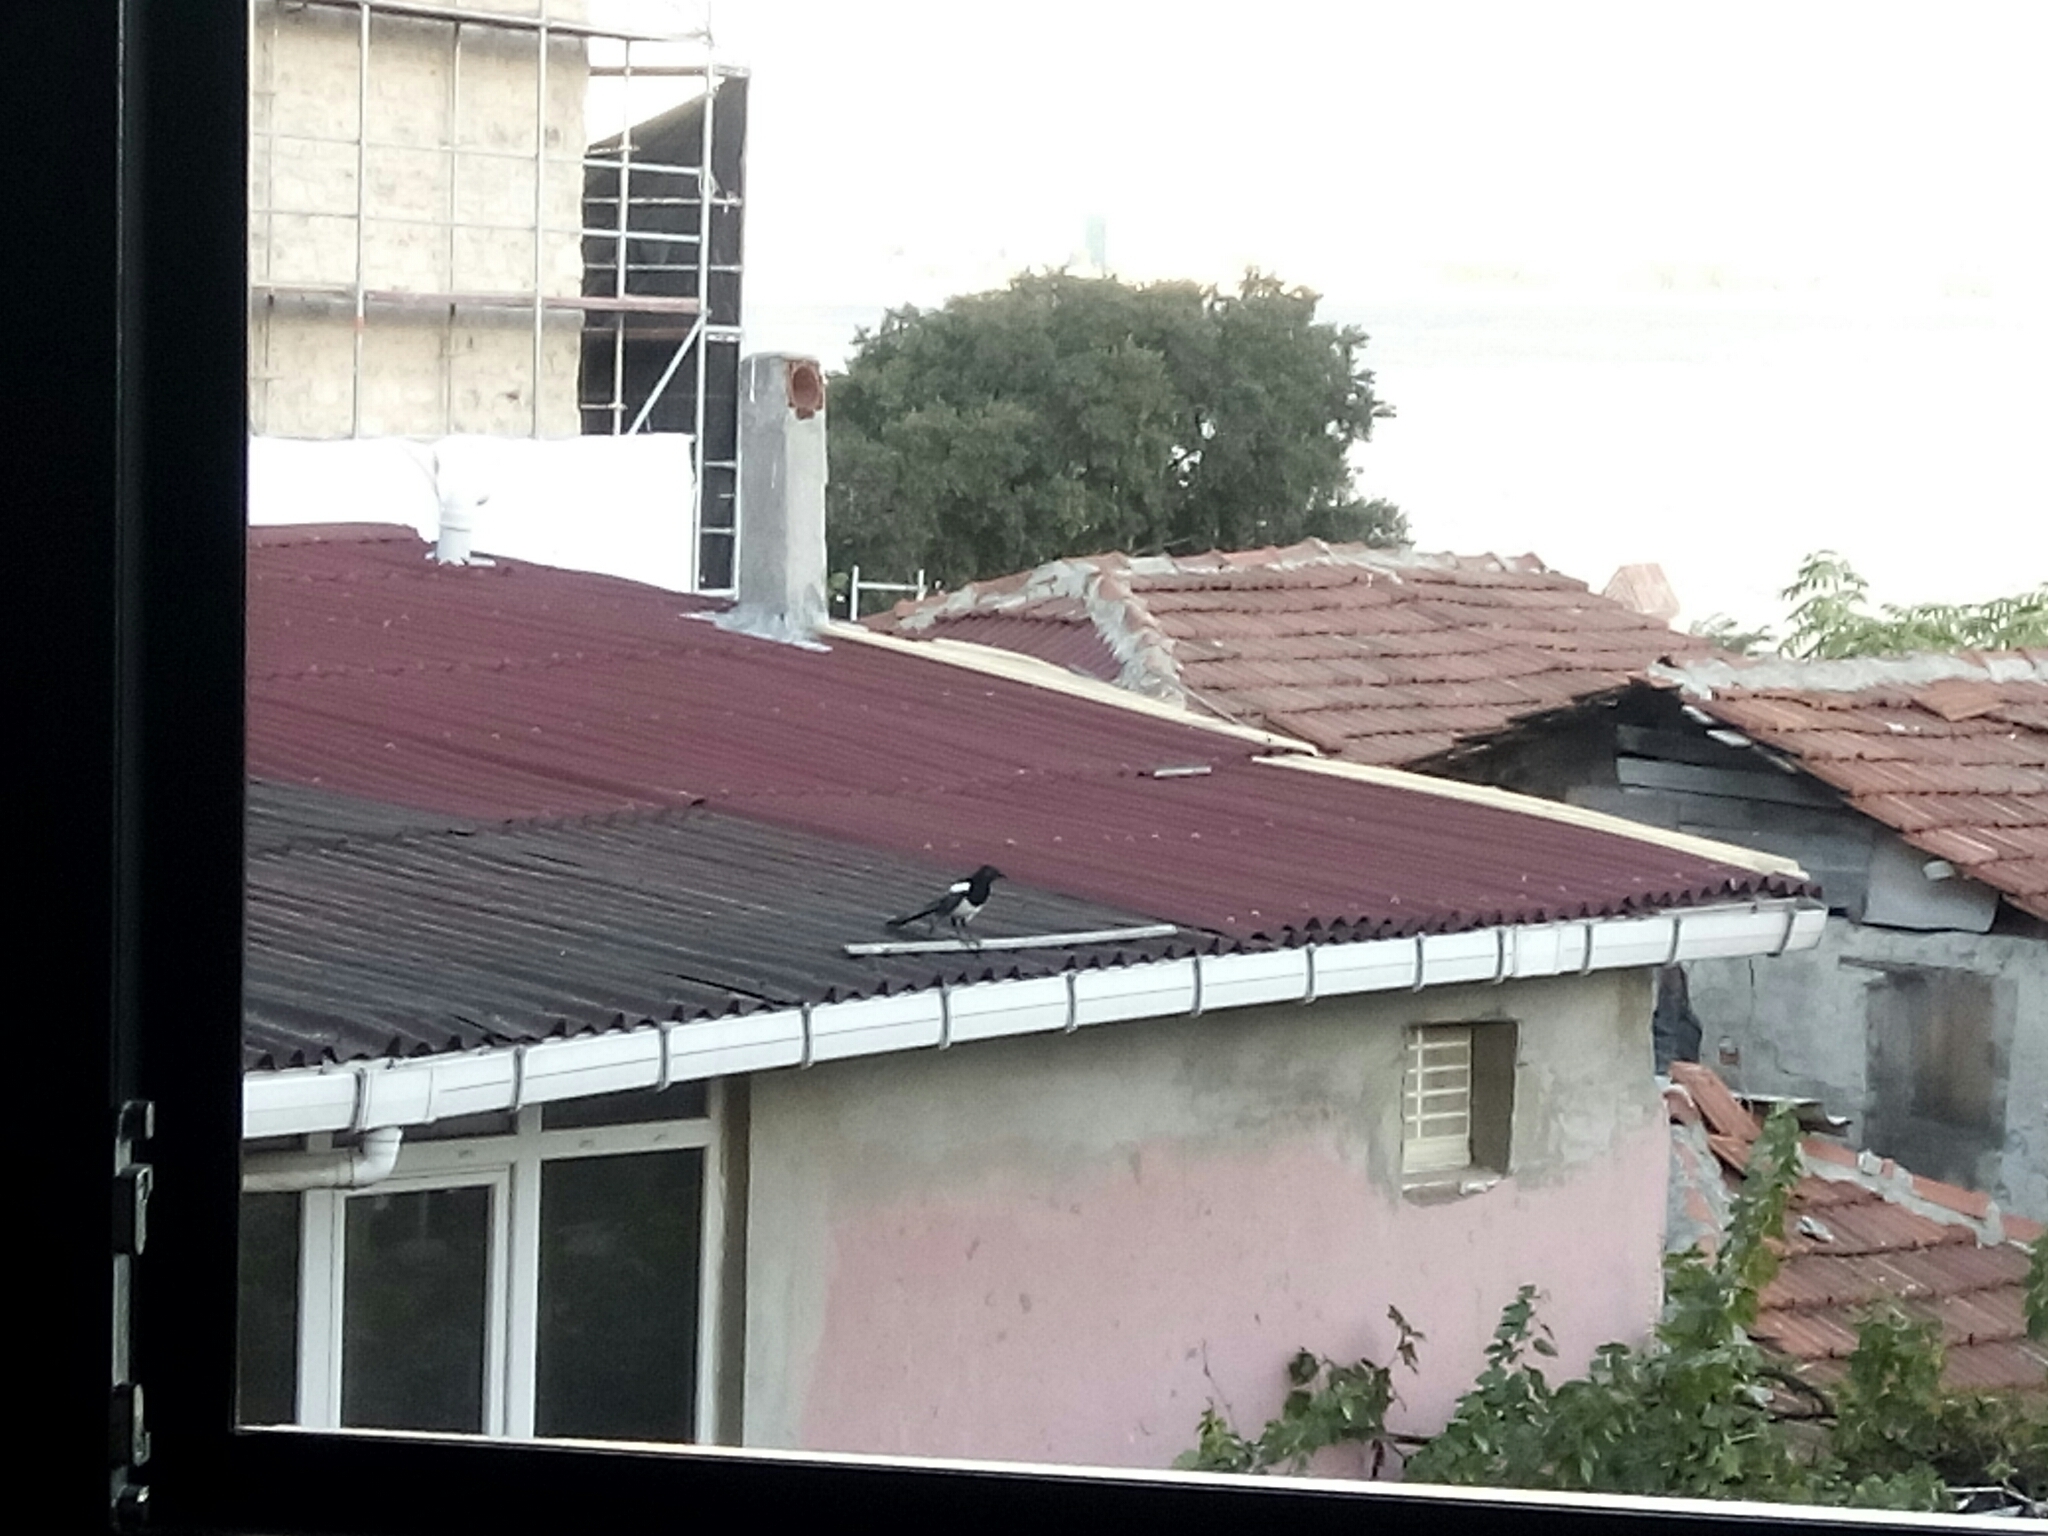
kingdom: Animalia
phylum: Chordata
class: Aves
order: Passeriformes
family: Corvidae
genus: Pica
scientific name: Pica pica
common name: Eurasian magpie
